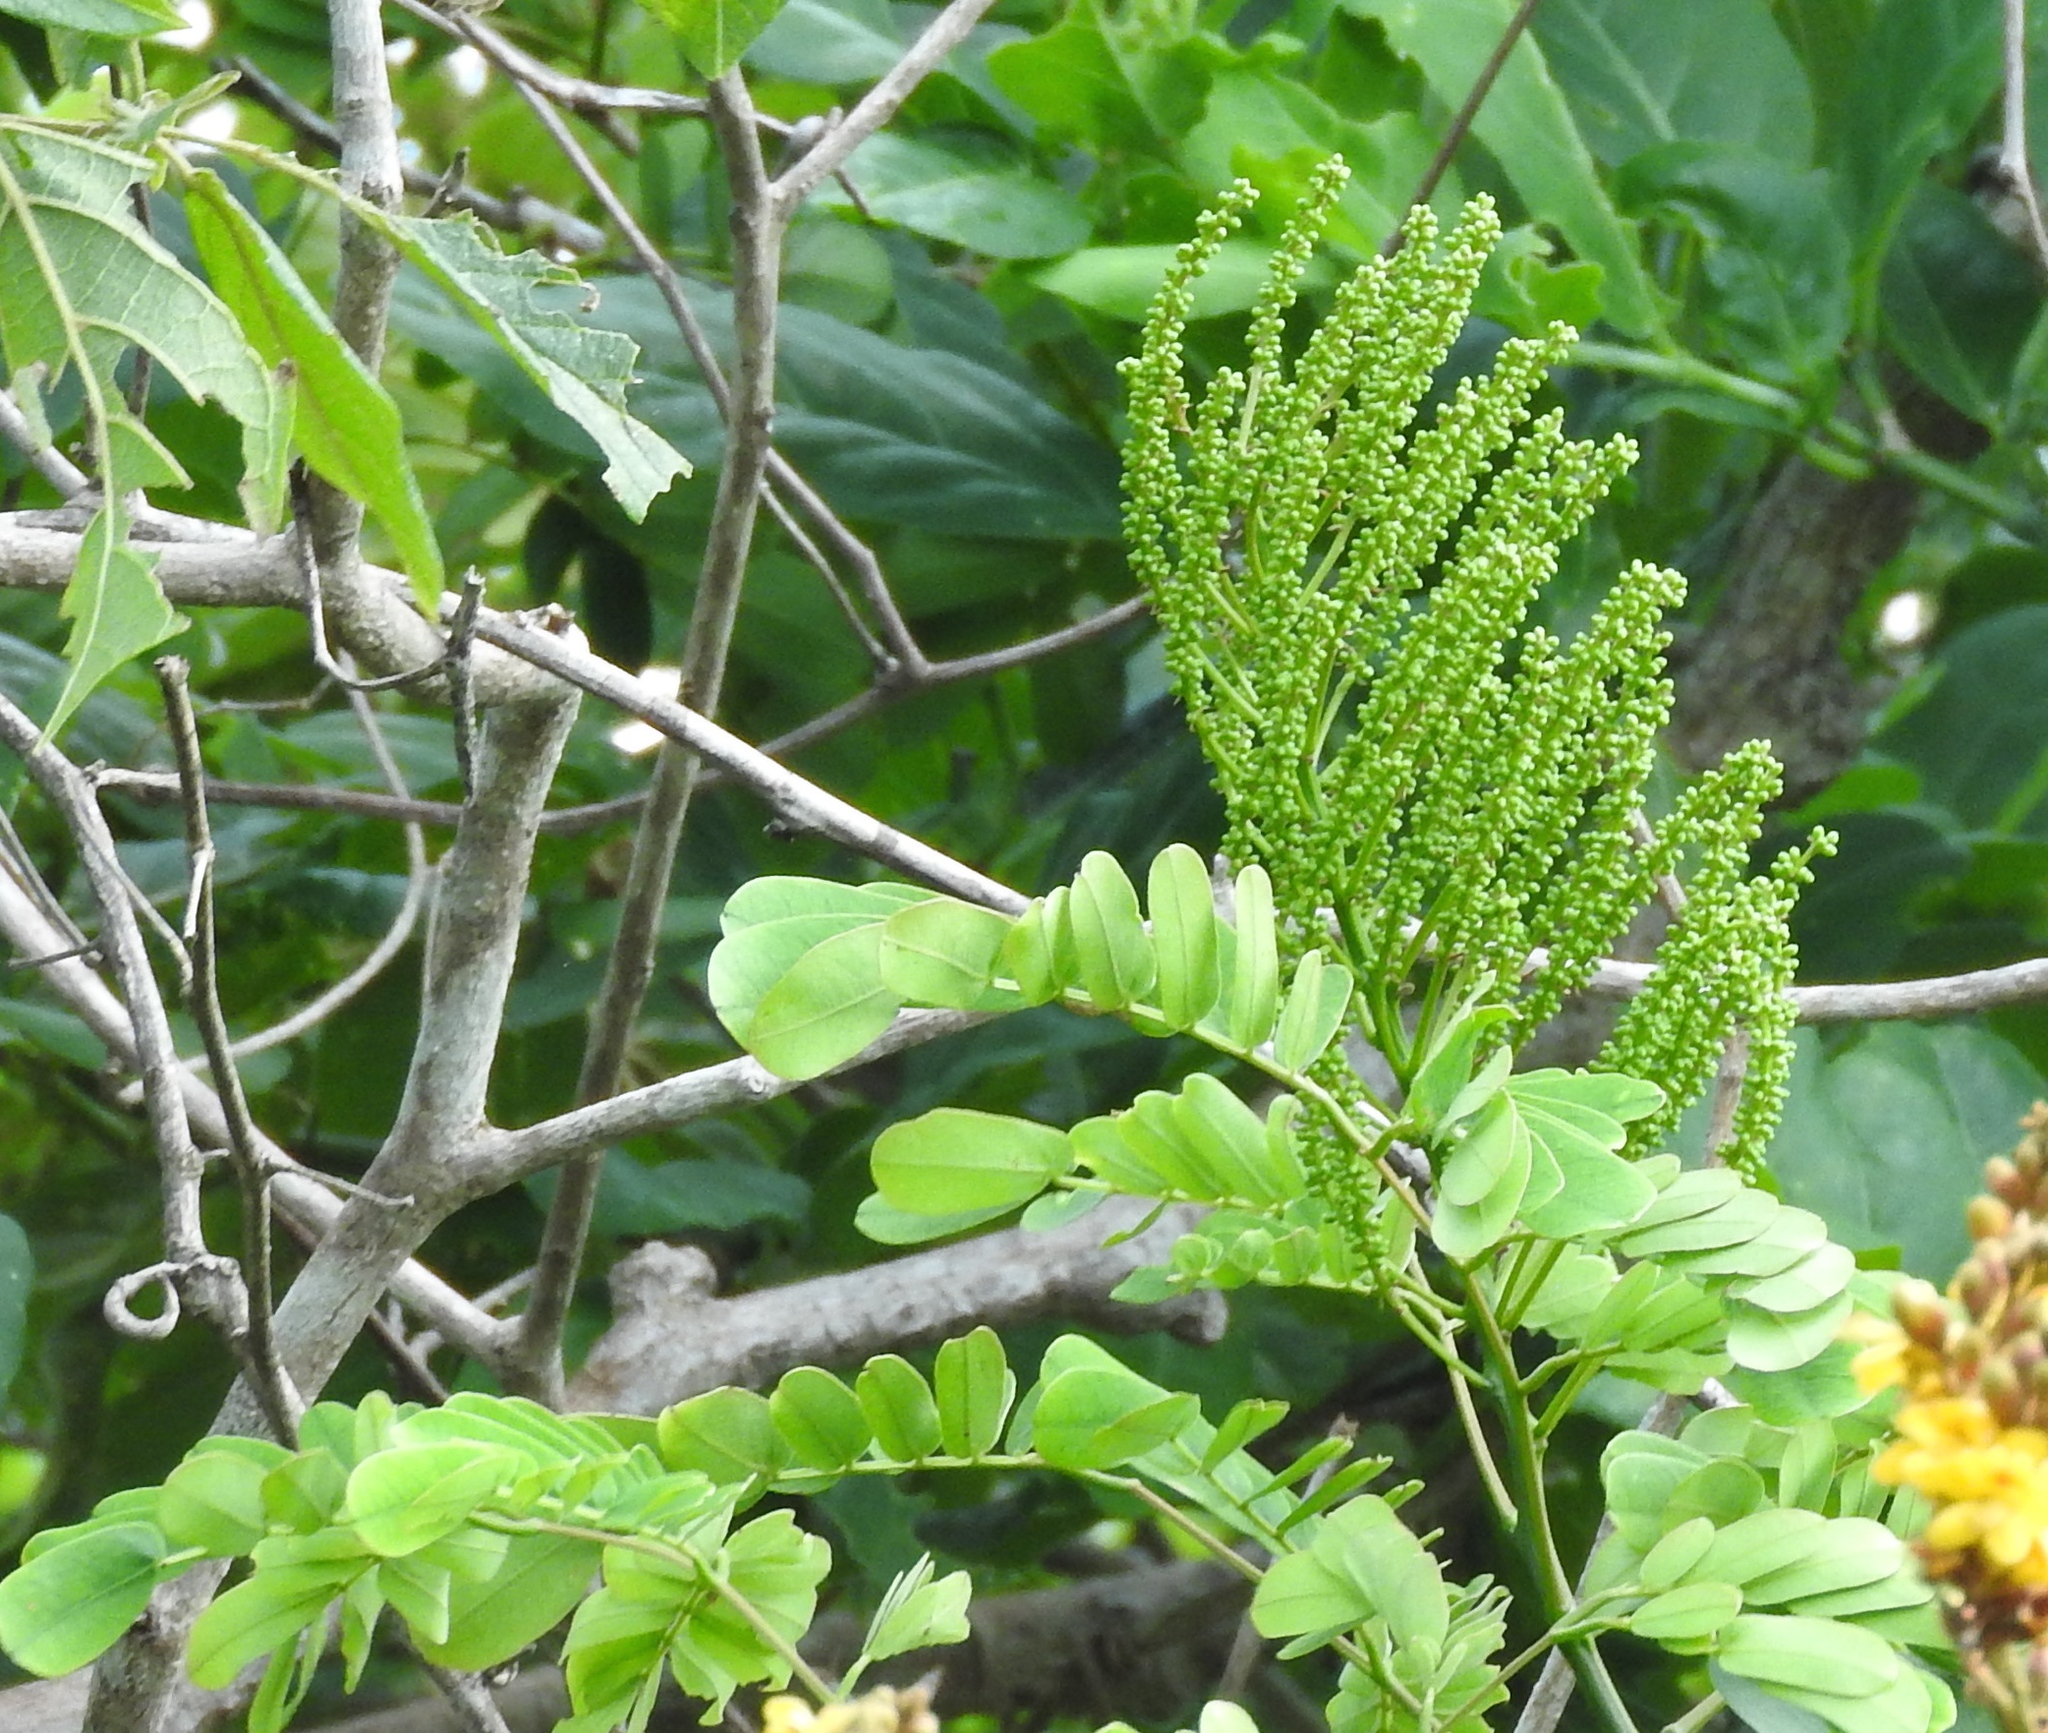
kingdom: Plantae
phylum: Tracheophyta
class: Magnoliopsida
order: Fabales
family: Fabaceae
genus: Entada
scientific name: Entada polystachya
